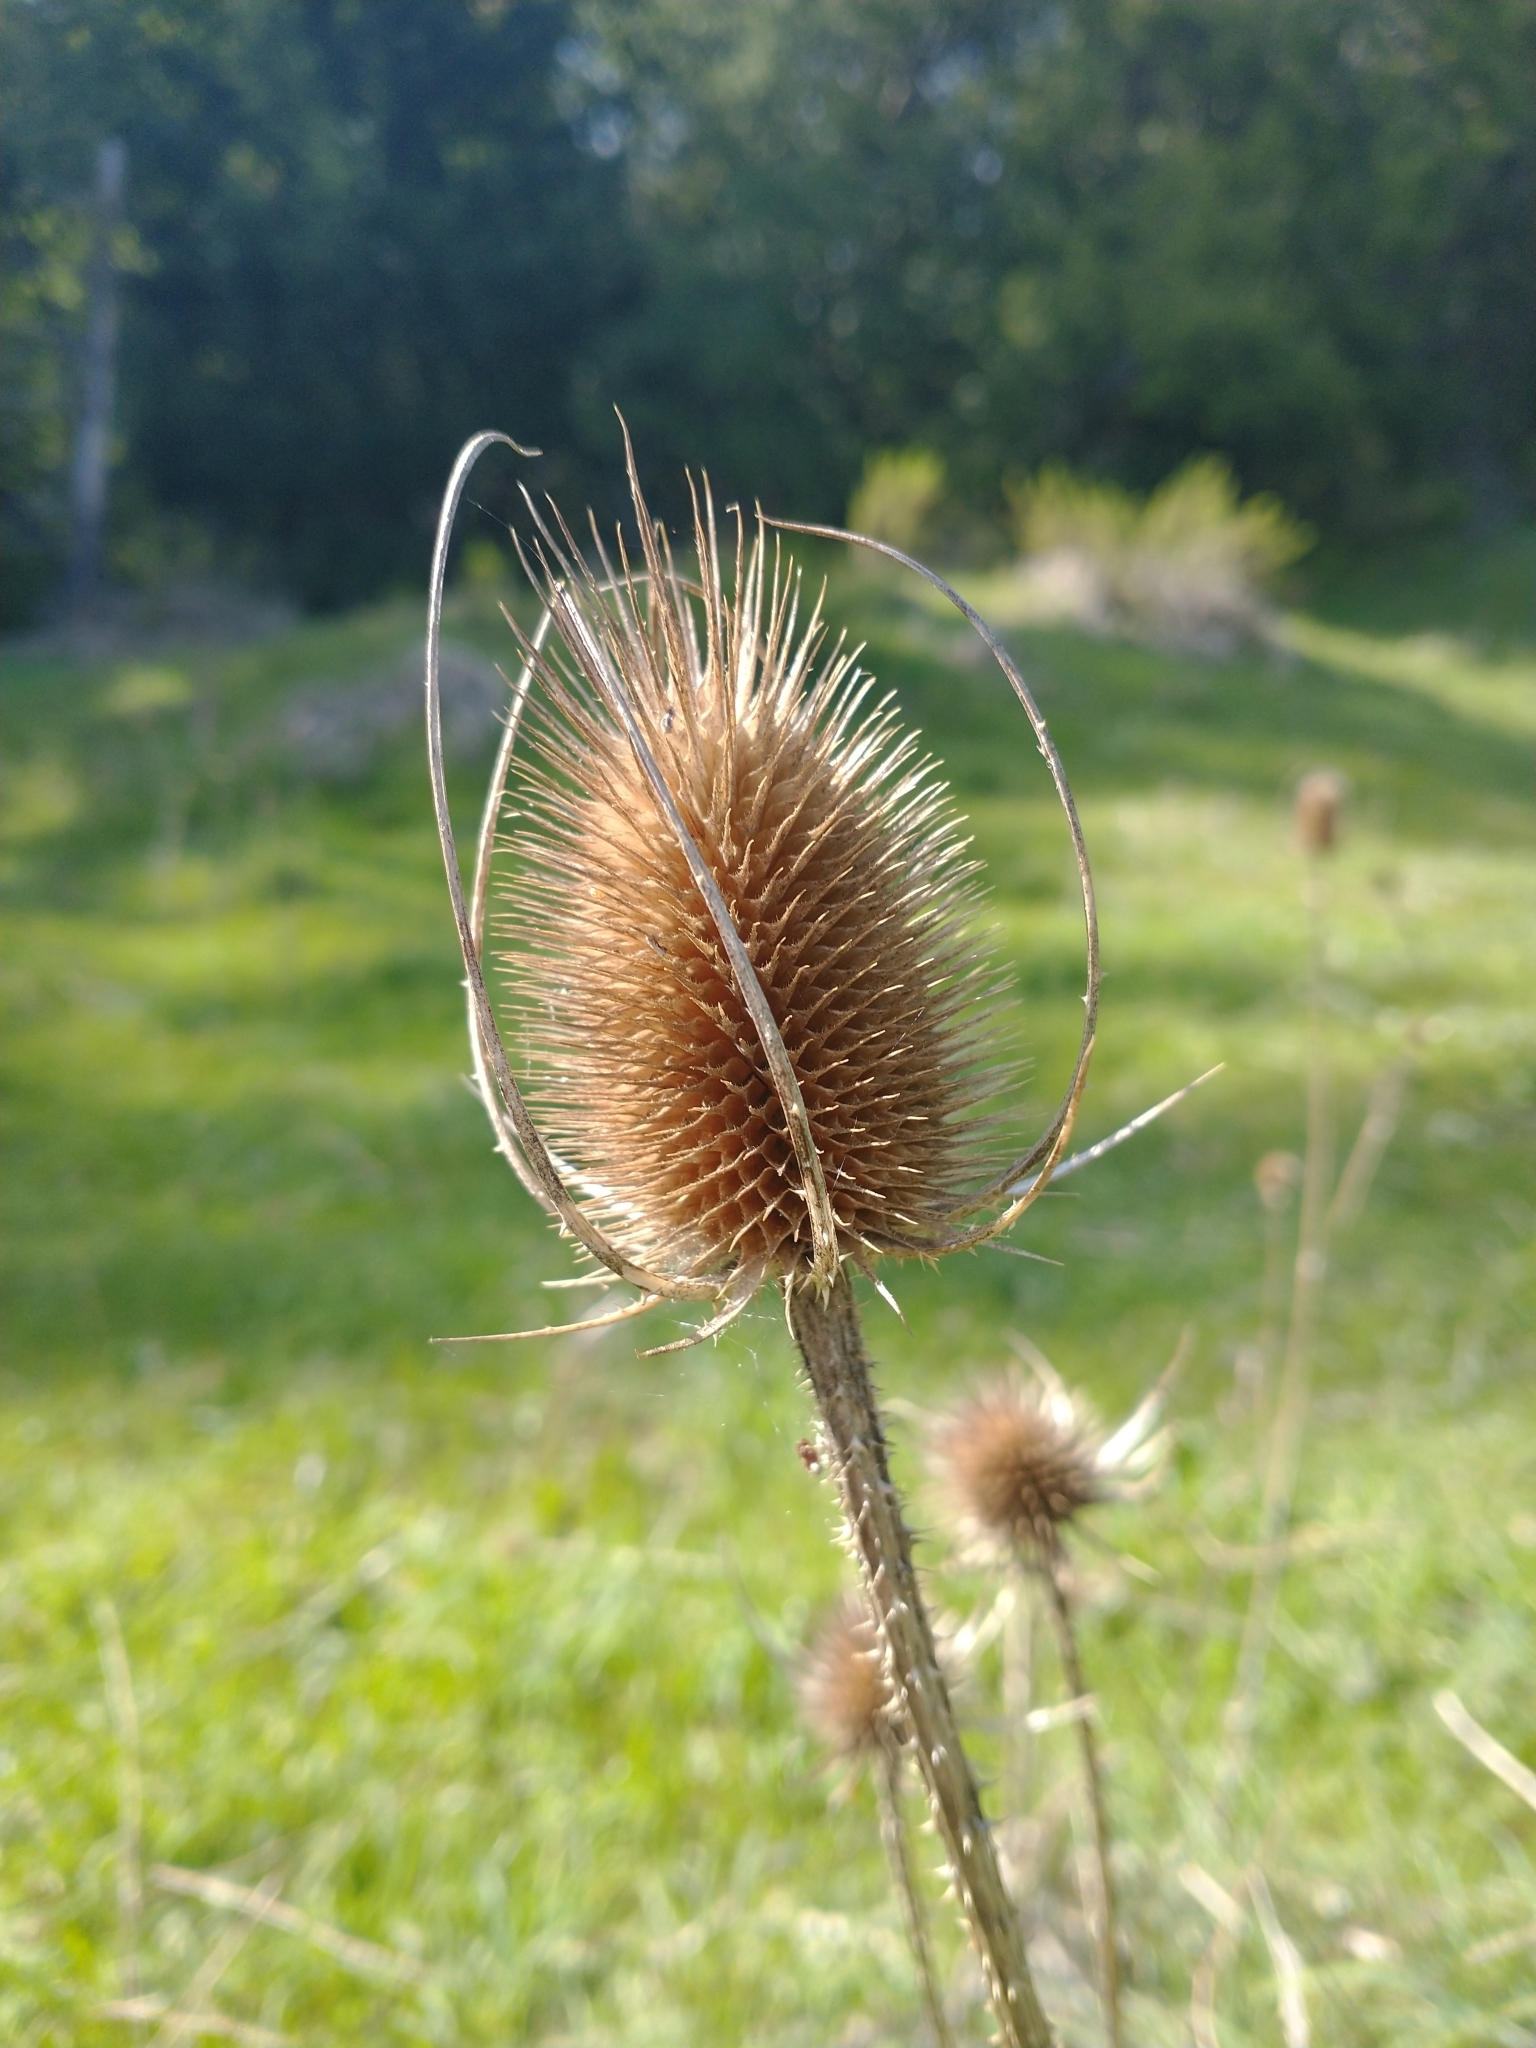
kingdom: Plantae
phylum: Tracheophyta
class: Magnoliopsida
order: Dipsacales
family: Caprifoliaceae
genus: Dipsacus
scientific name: Dipsacus fullonum
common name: Teasel
